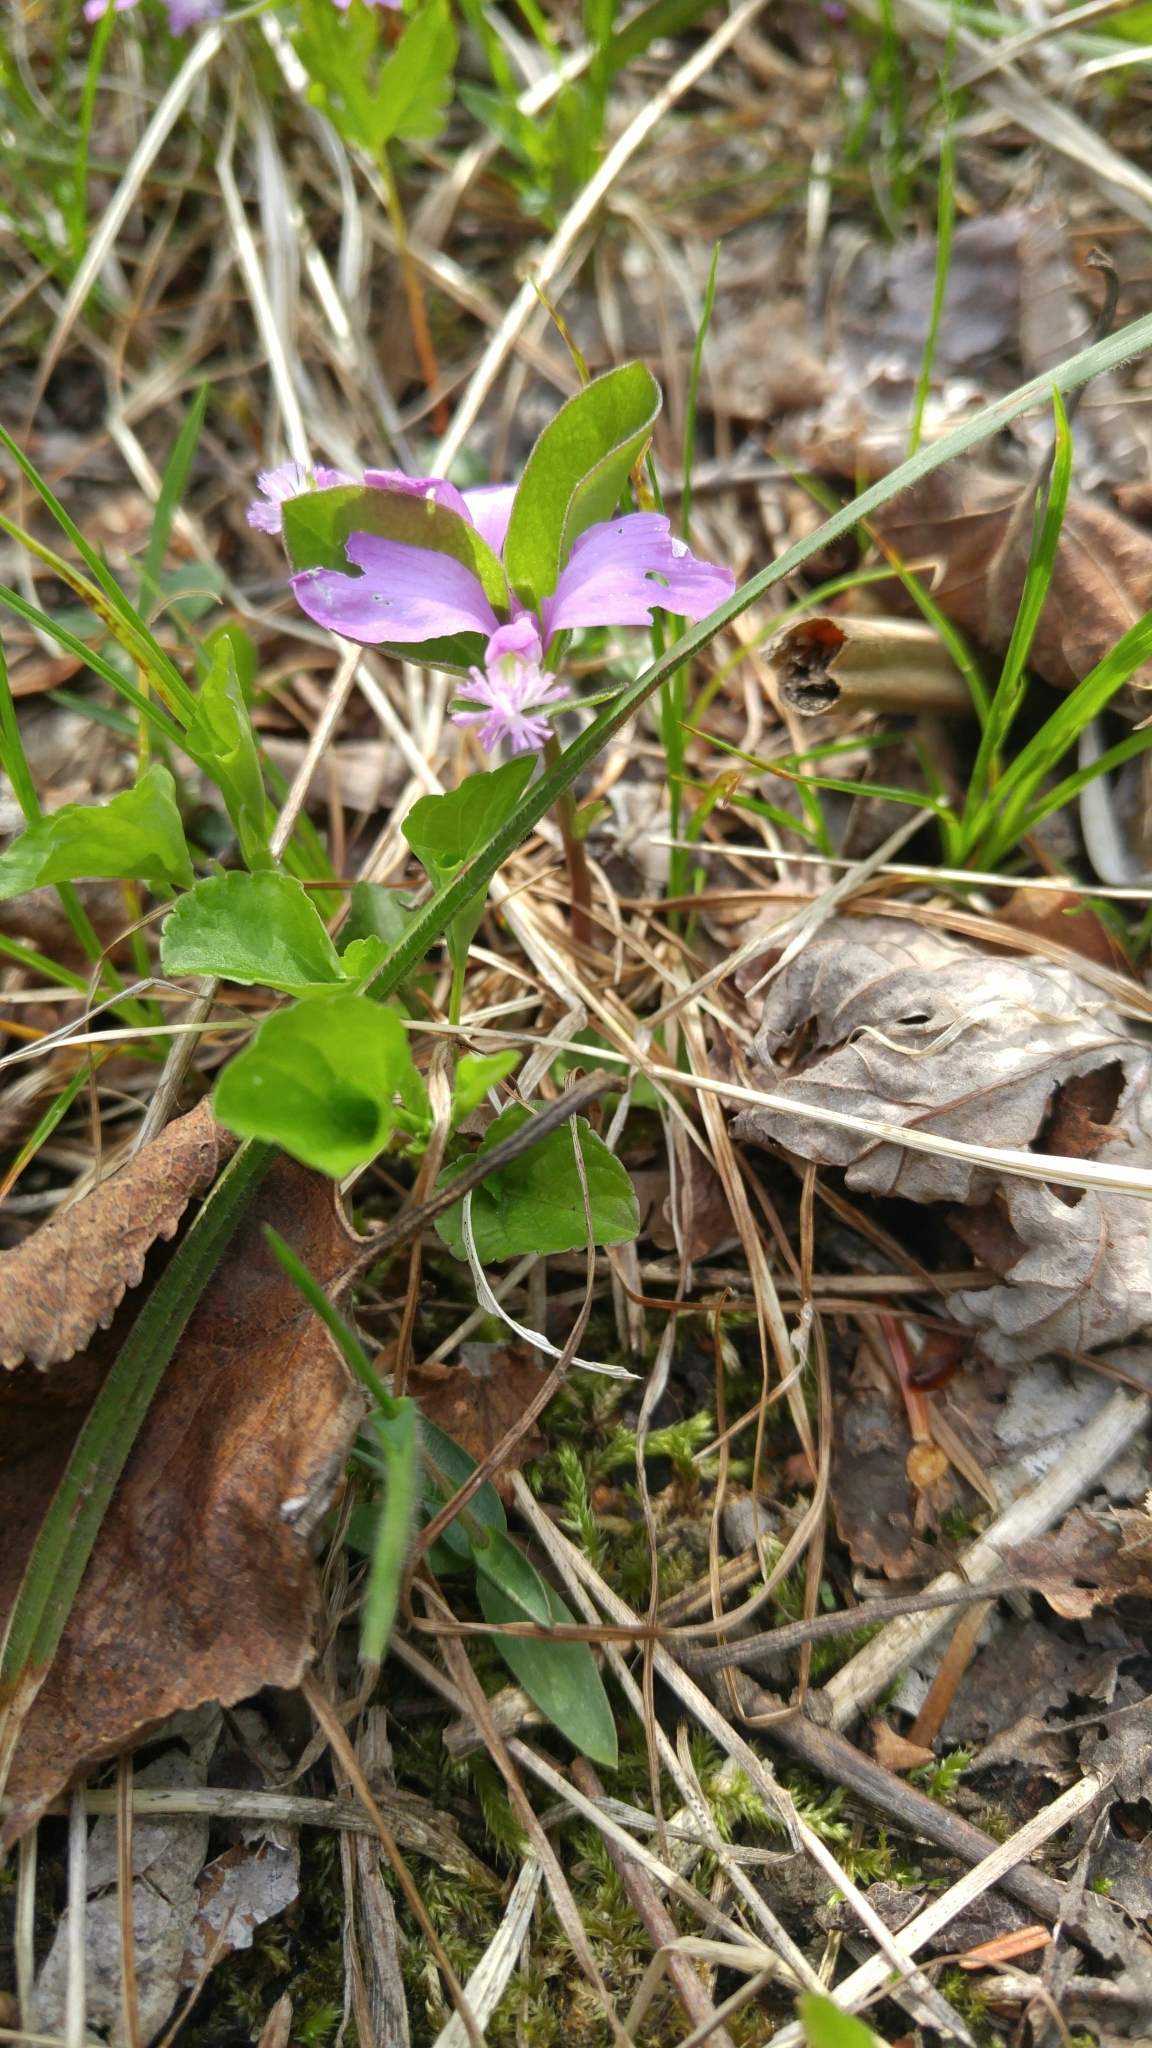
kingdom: Plantae
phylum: Tracheophyta
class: Magnoliopsida
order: Fabales
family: Polygalaceae
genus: Polygaloides
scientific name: Polygaloides paucifolia
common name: Bird-on-the-wing
